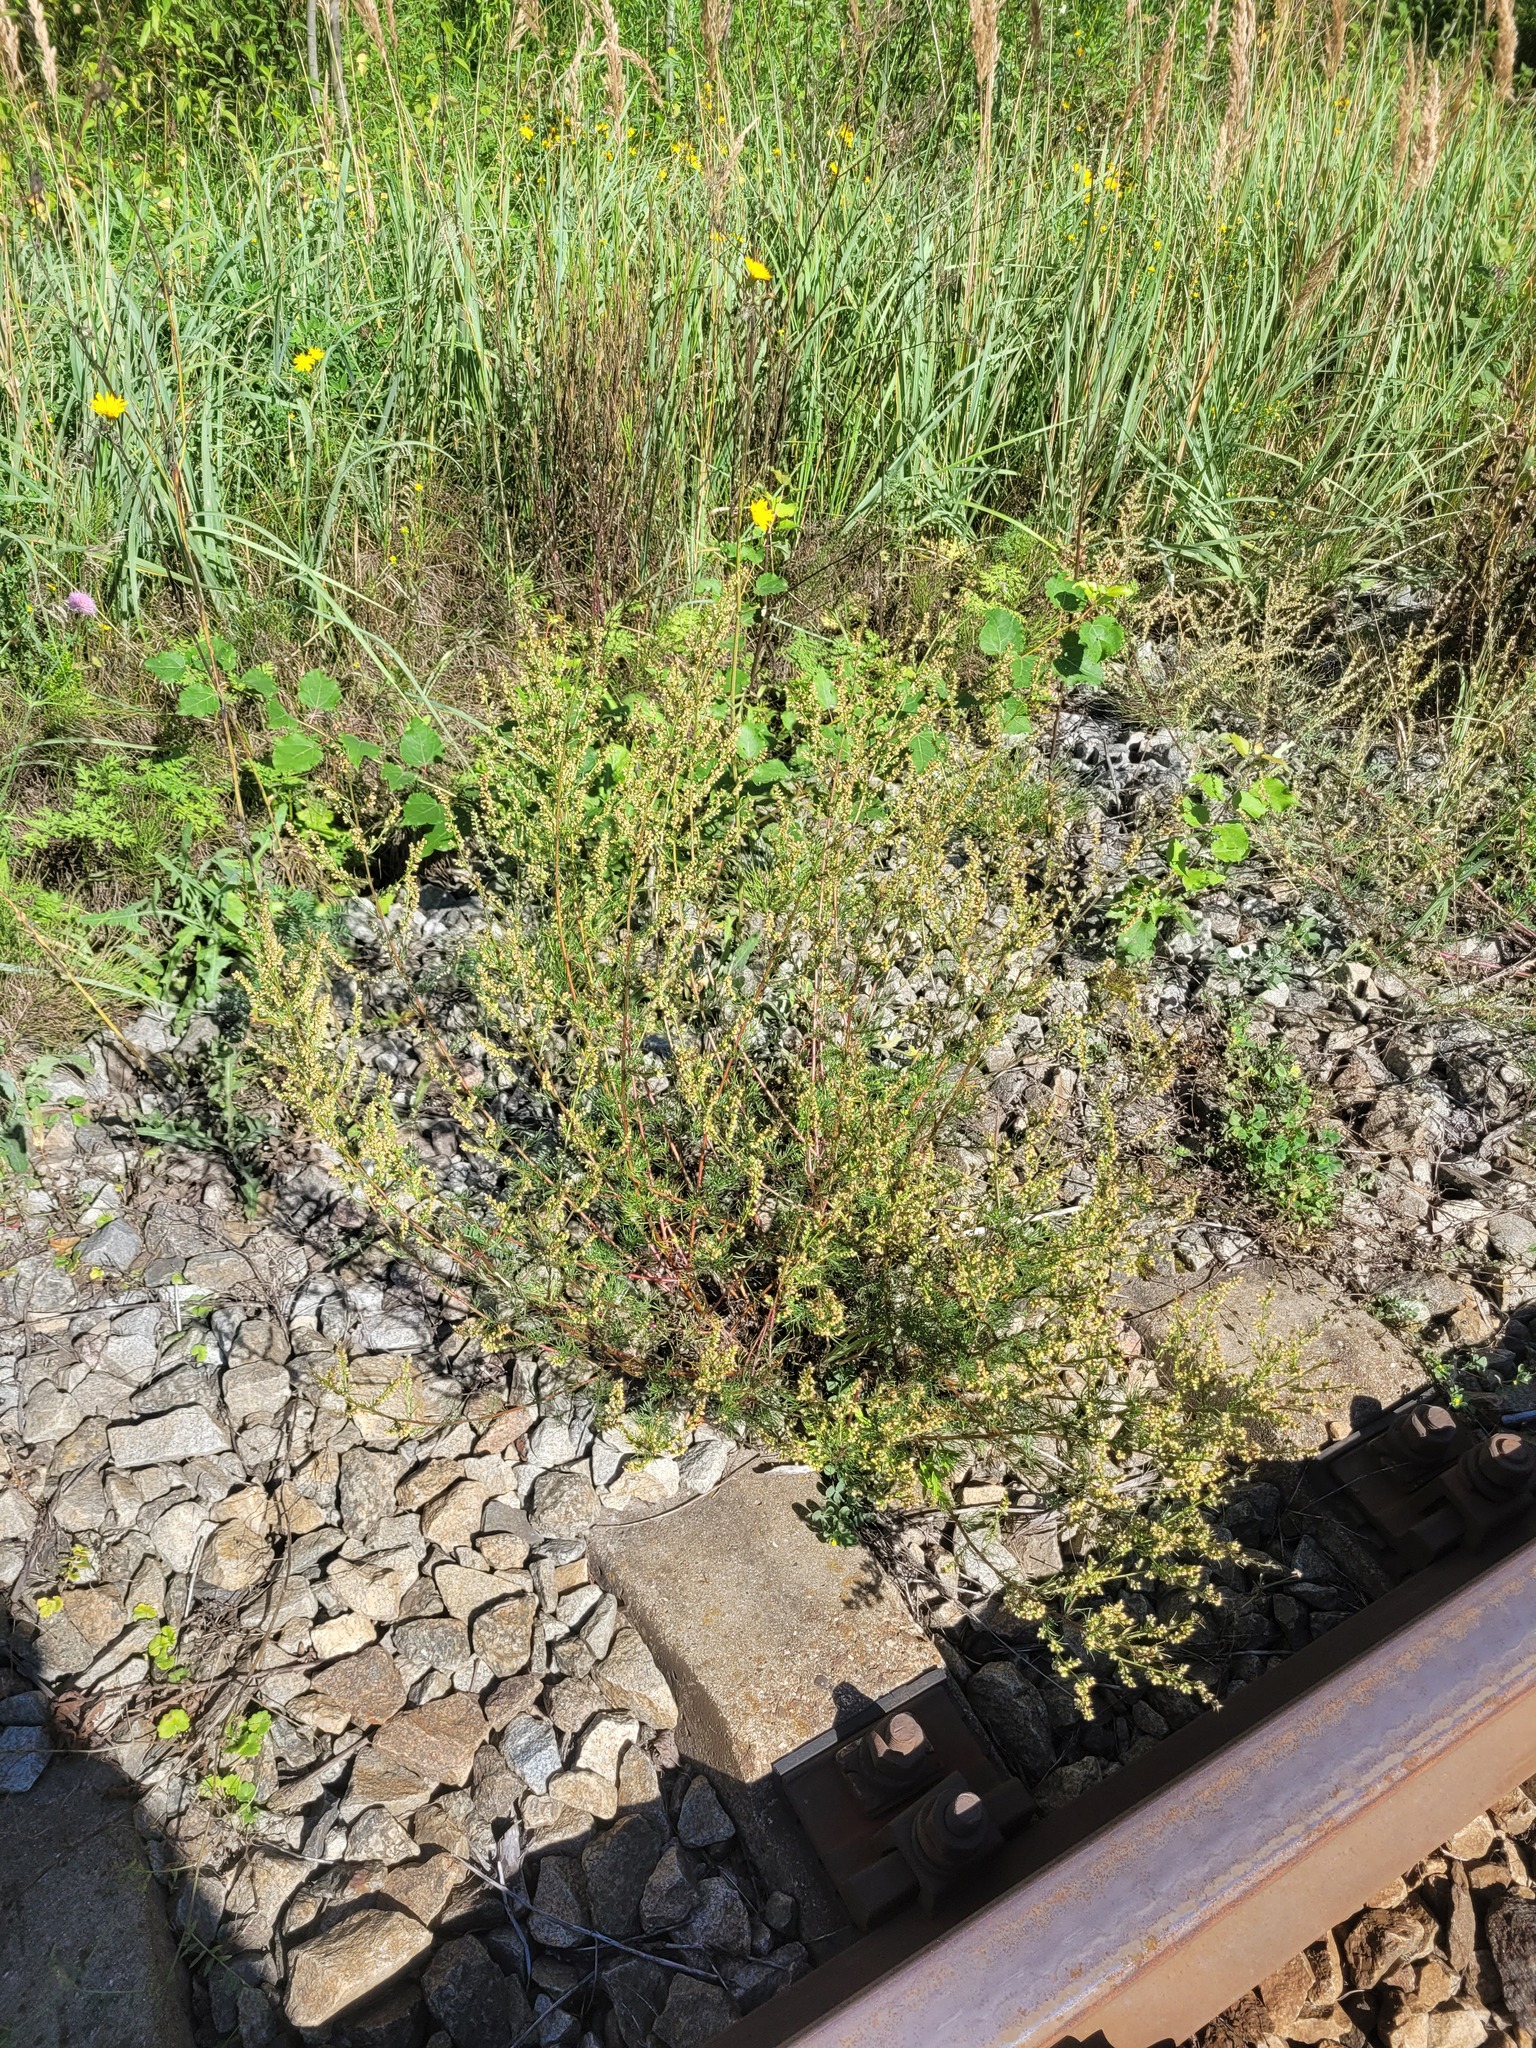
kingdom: Plantae
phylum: Tracheophyta
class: Magnoliopsida
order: Asterales
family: Asteraceae
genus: Artemisia
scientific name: Artemisia campestris
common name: Field wormwood
